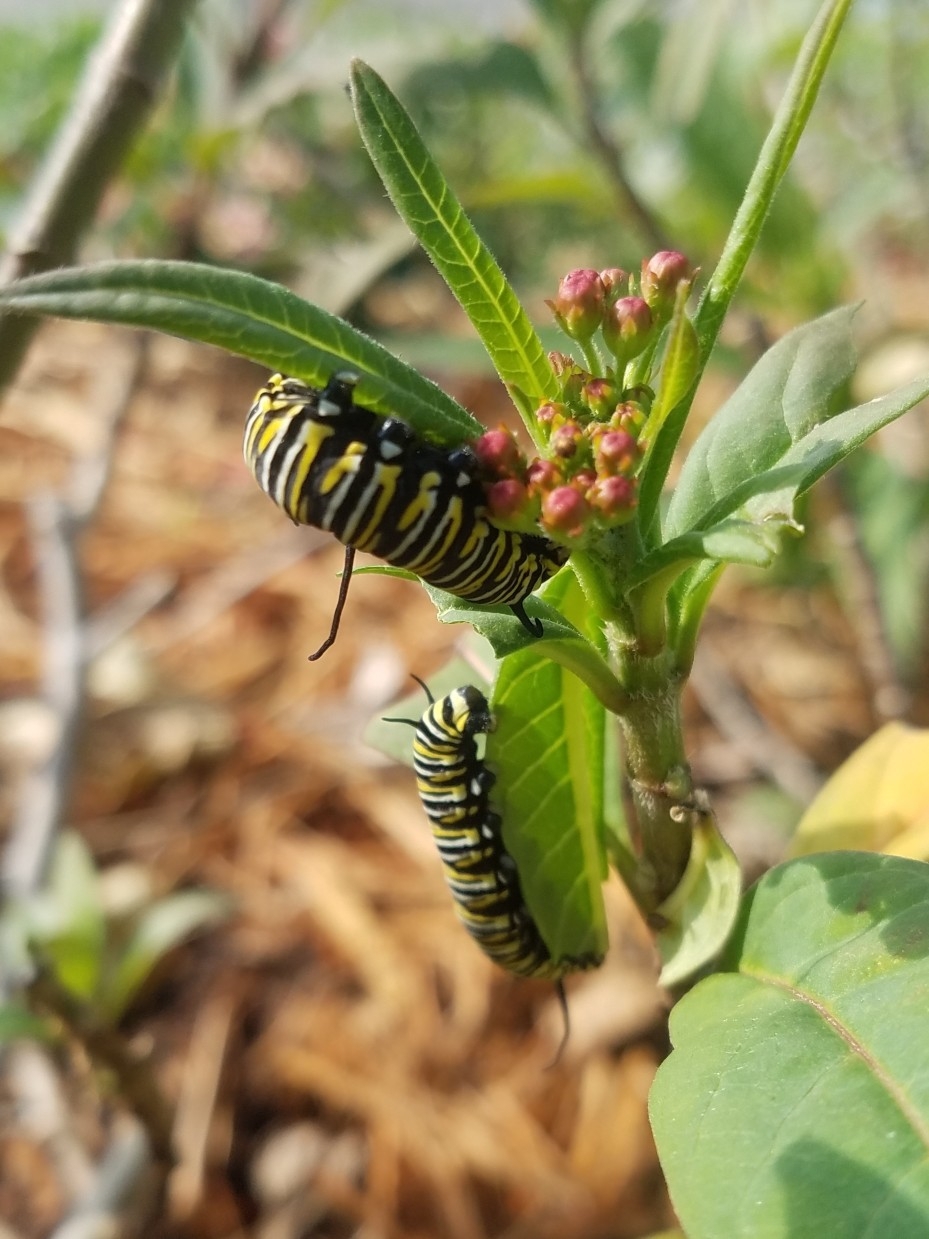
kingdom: Animalia
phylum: Arthropoda
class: Insecta
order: Lepidoptera
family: Nymphalidae
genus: Danaus
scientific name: Danaus plexippus
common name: Monarch
